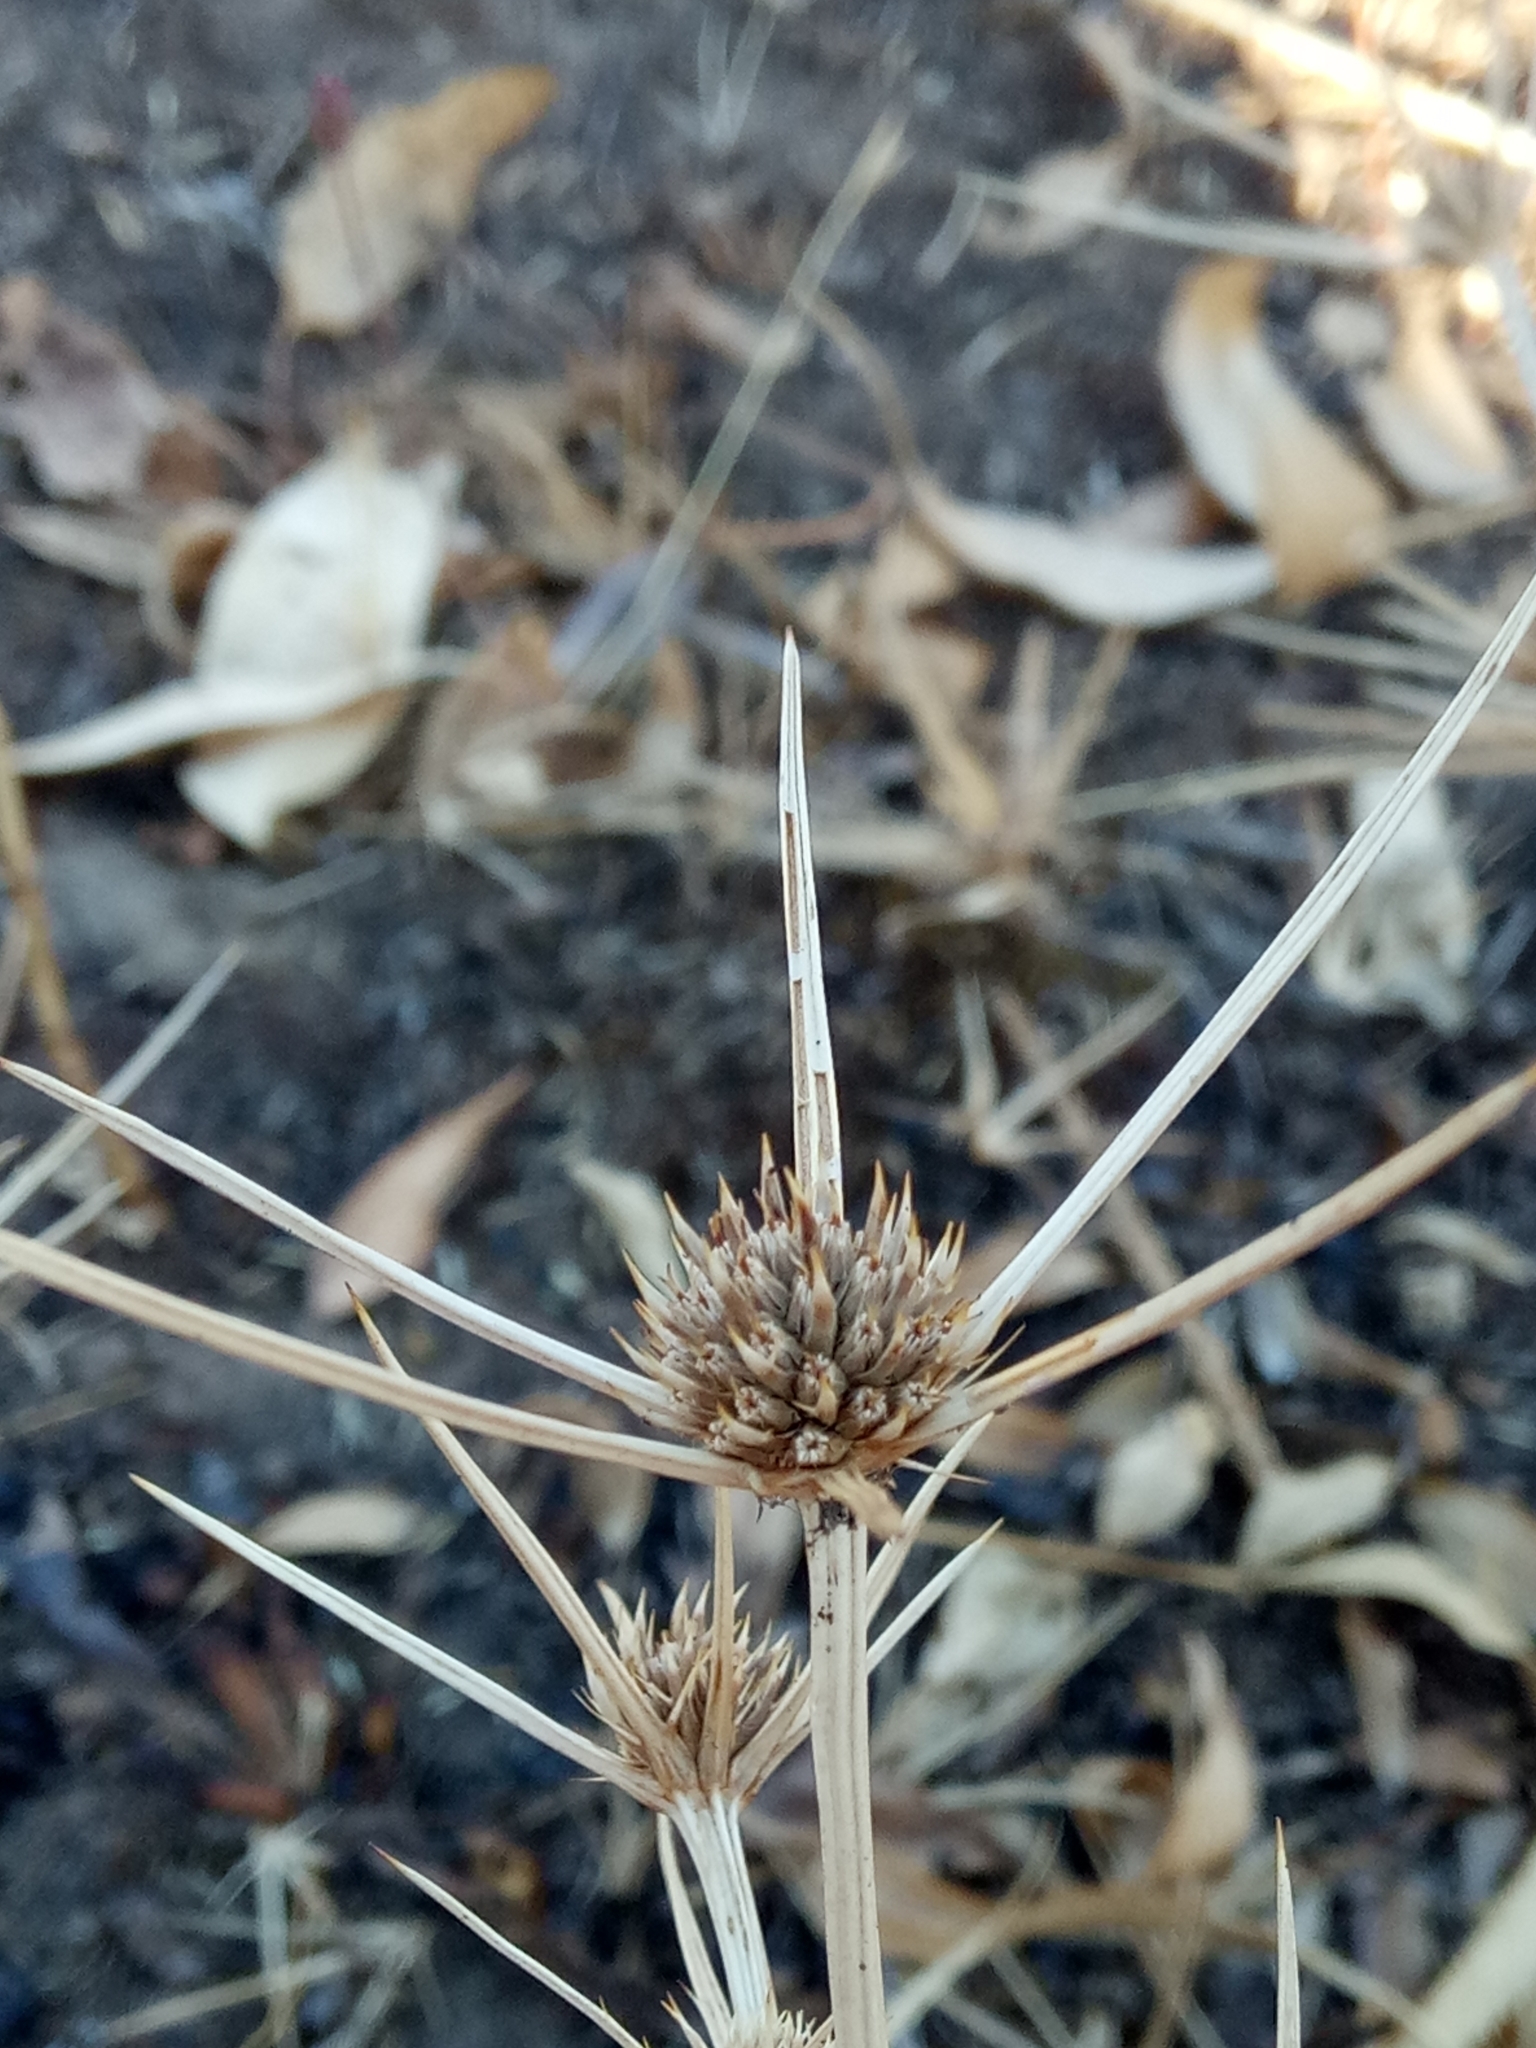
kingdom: Plantae
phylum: Tracheophyta
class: Magnoliopsida
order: Apiales
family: Apiaceae
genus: Eryngium
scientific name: Eryngium tricuspidatum
